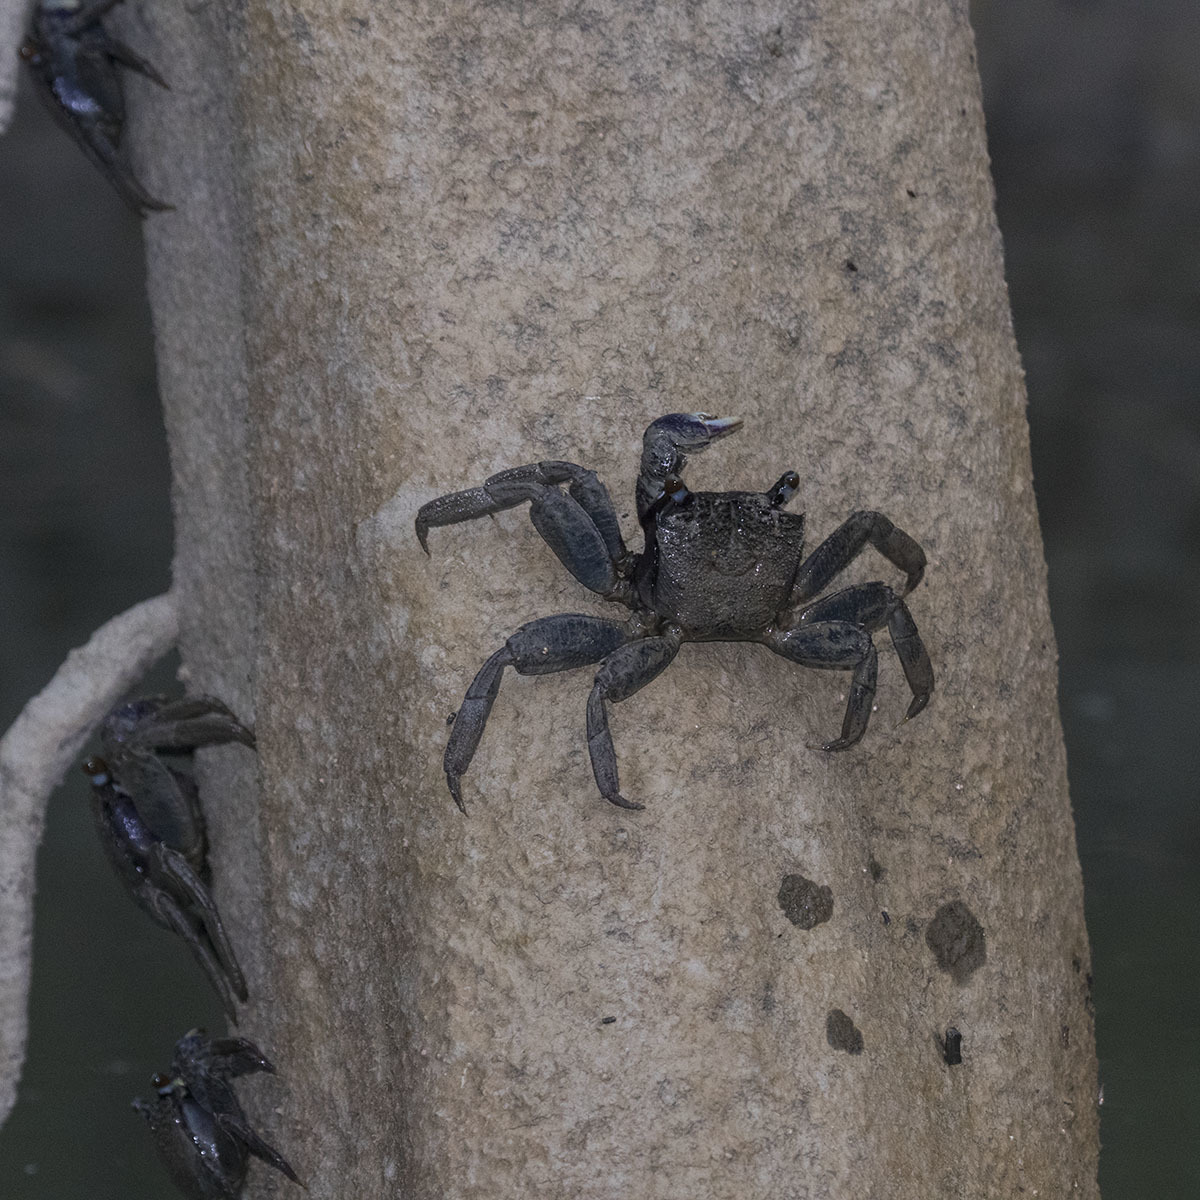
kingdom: Animalia
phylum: Arthropoda
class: Malacostraca
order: Decapoda
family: Sesarmidae
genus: Episesarma
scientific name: Episesarma versicolor
